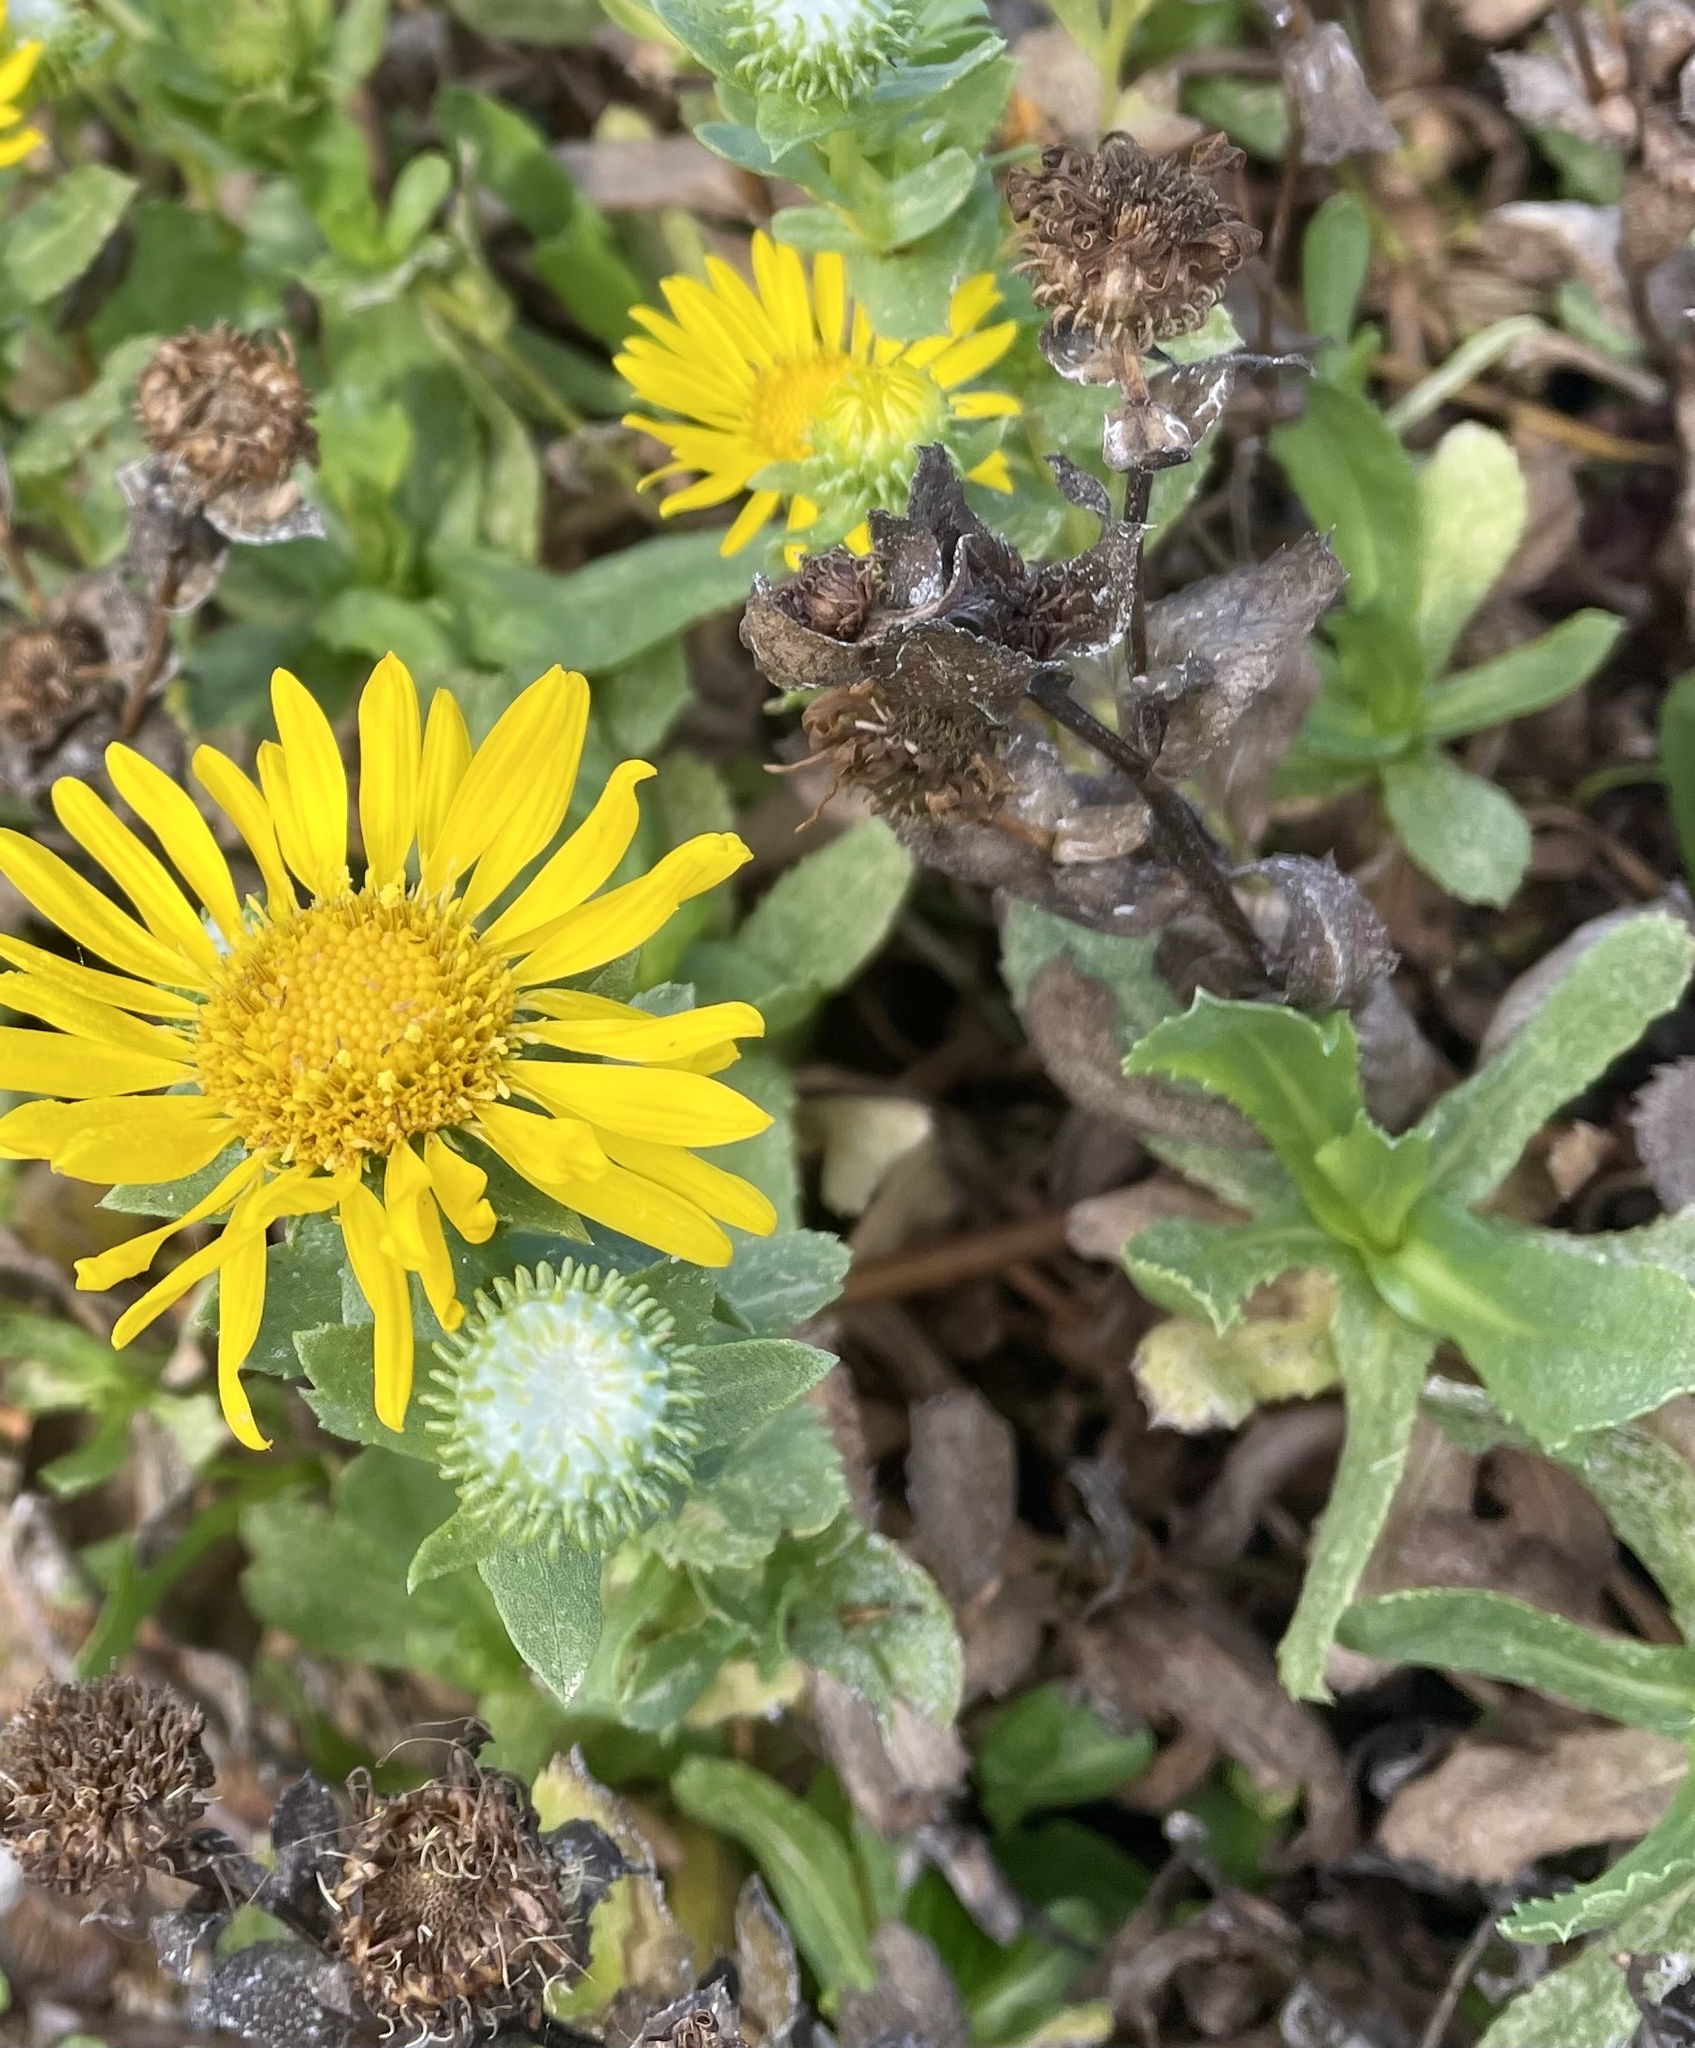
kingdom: Plantae
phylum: Tracheophyta
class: Magnoliopsida
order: Asterales
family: Asteraceae
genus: Grindelia
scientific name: Grindelia hirsutula
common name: Hairy gumweed
